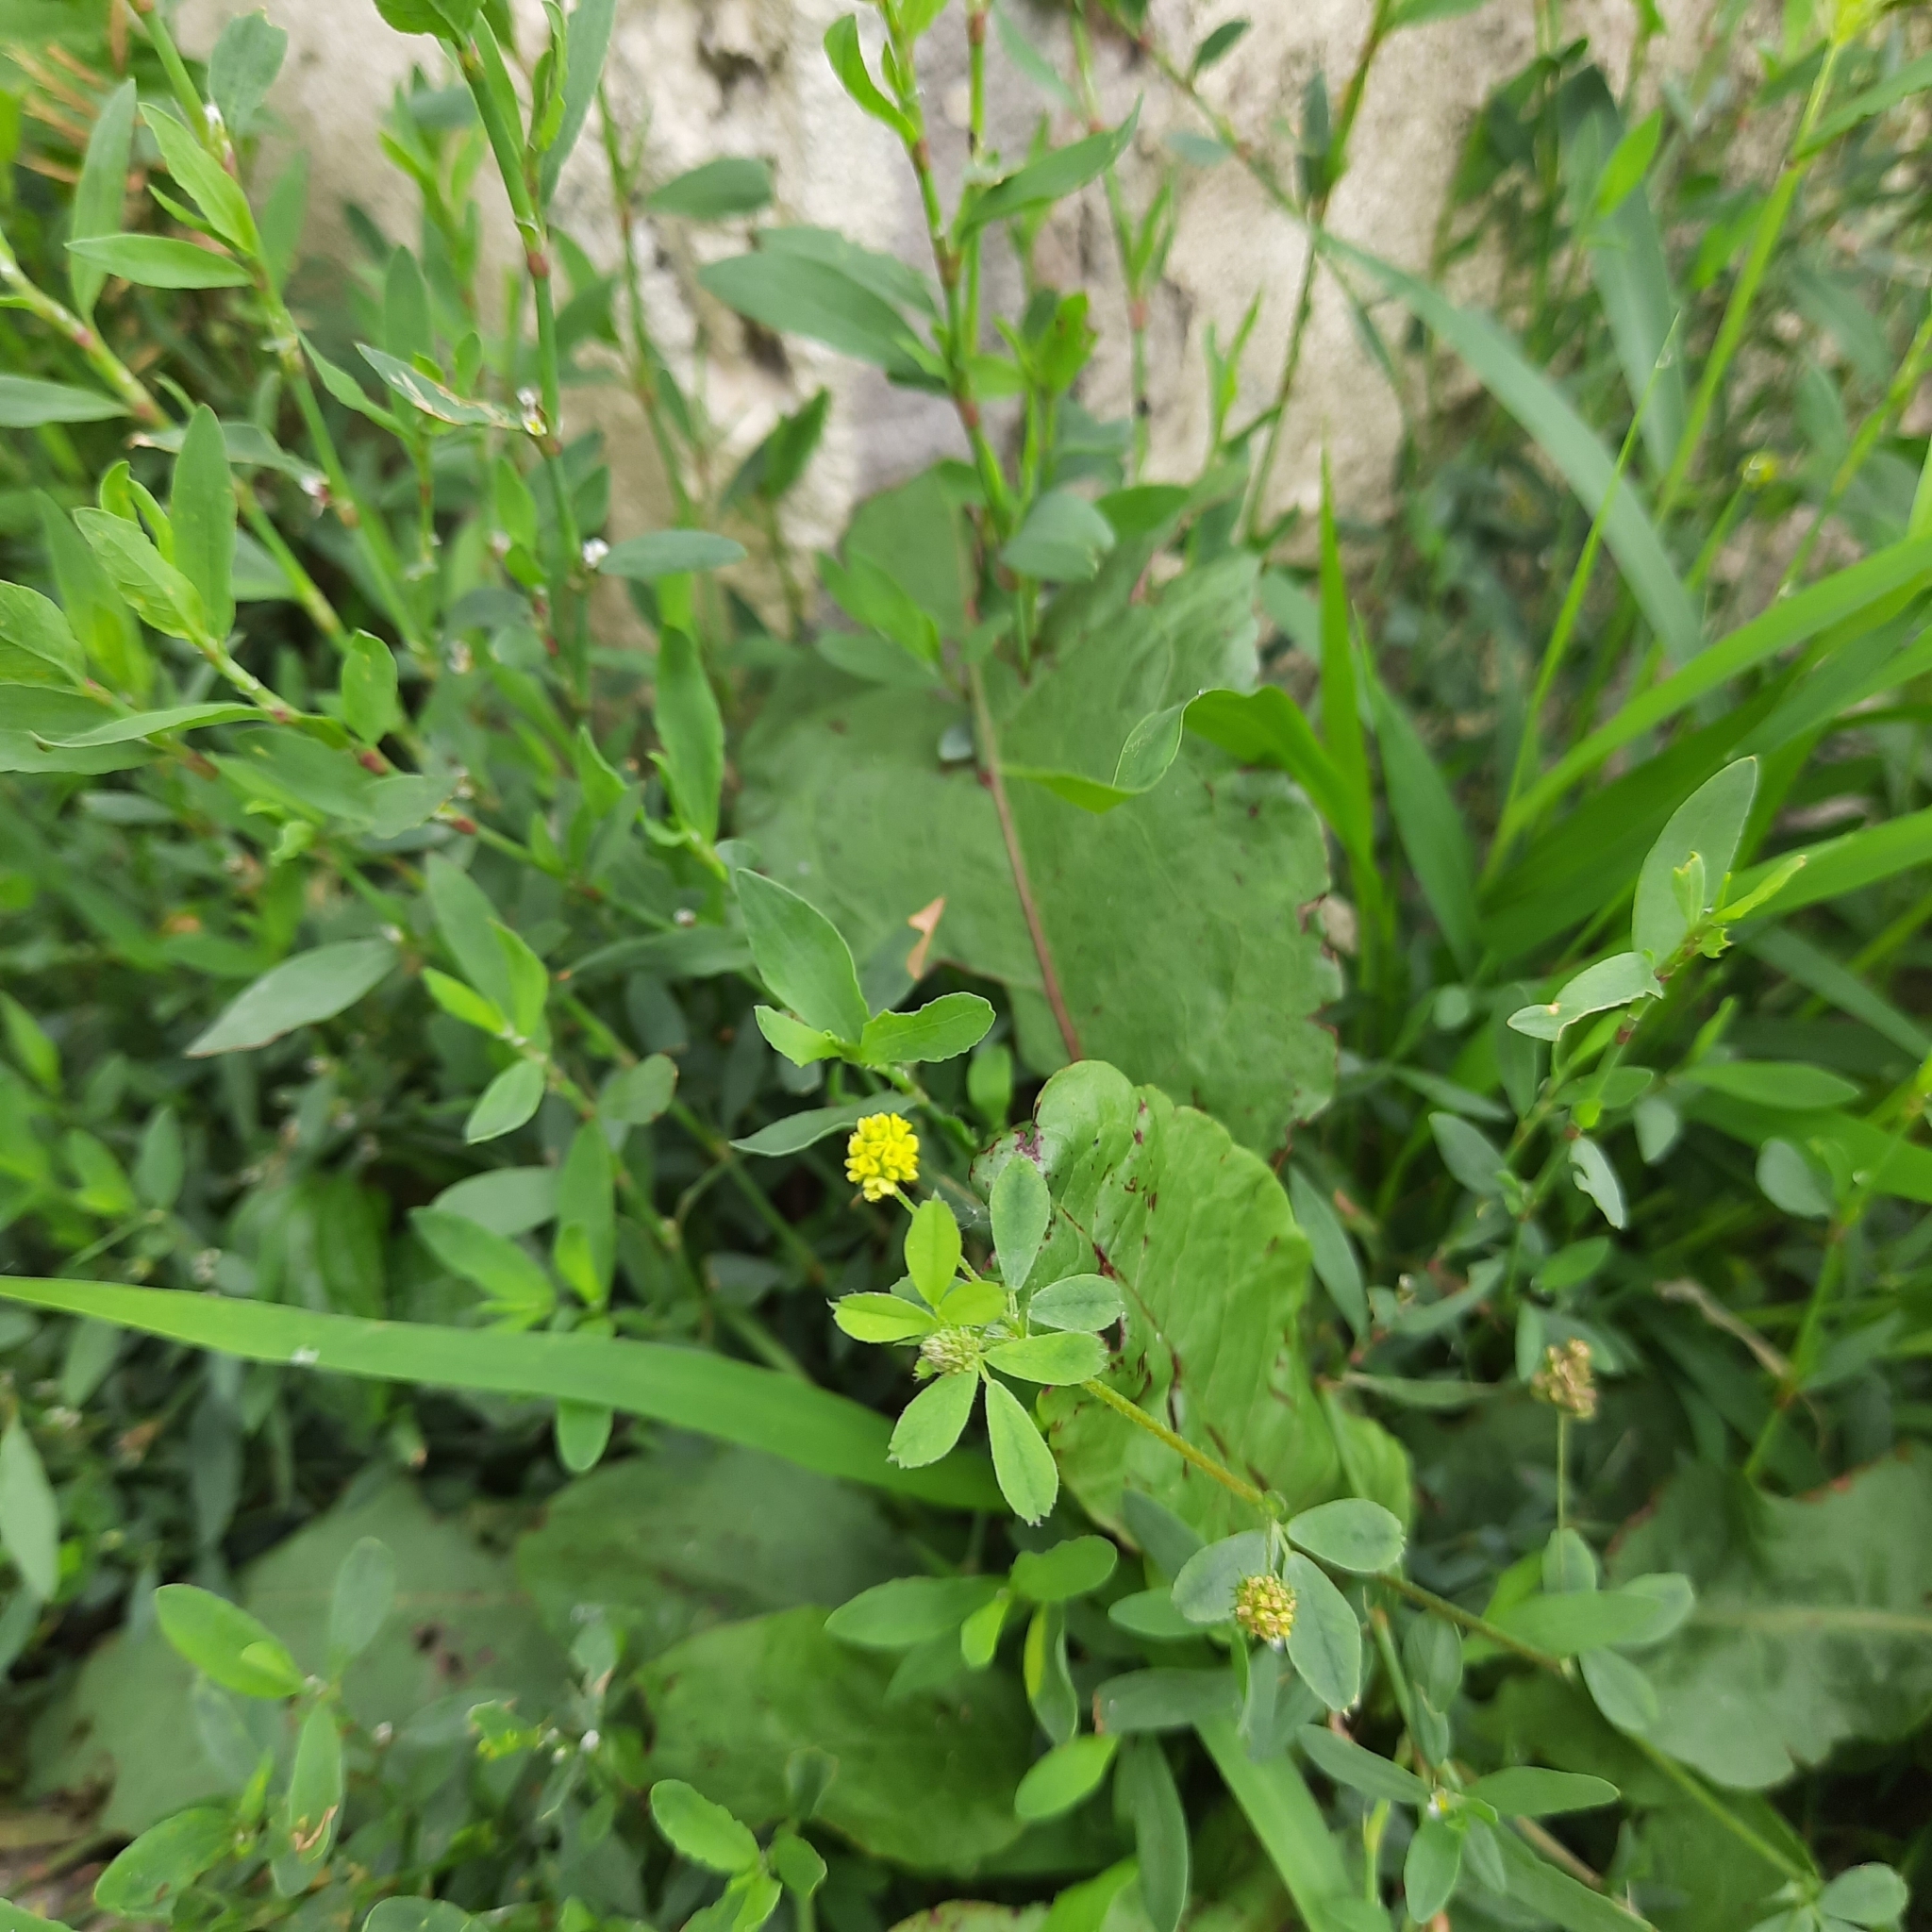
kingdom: Plantae
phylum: Tracheophyta
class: Magnoliopsida
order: Fabales
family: Fabaceae
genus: Medicago
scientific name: Medicago lupulina
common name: Black medick
